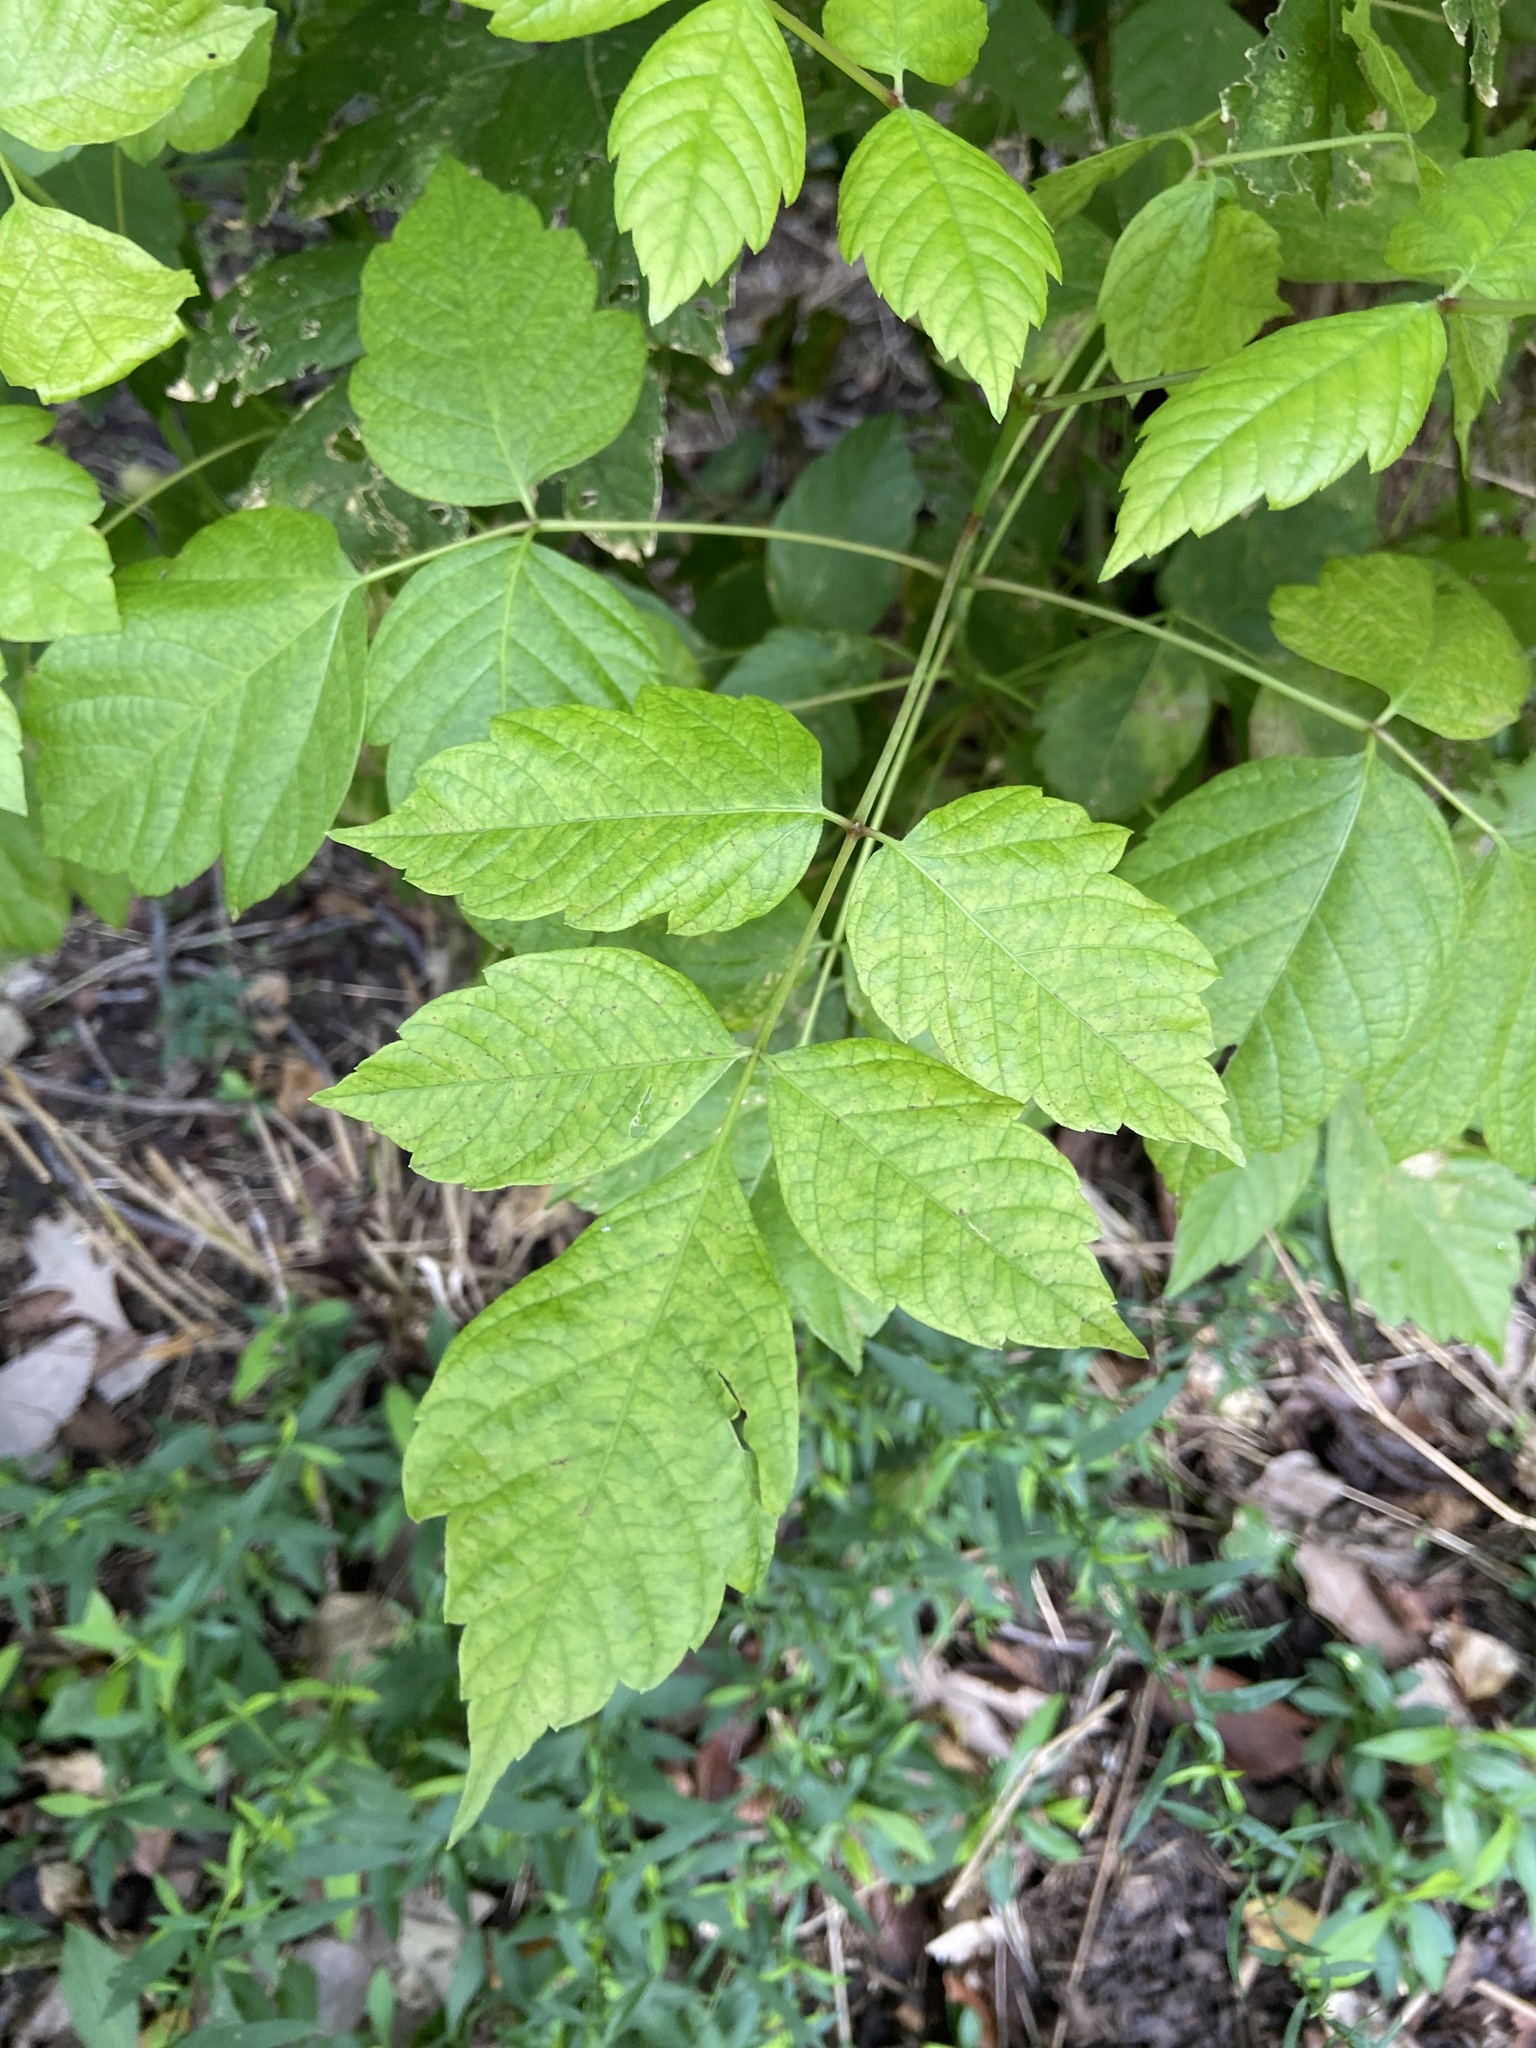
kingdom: Plantae
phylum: Tracheophyta
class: Magnoliopsida
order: Sapindales
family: Sapindaceae
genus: Acer
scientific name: Acer negundo
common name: Ashleaf maple
